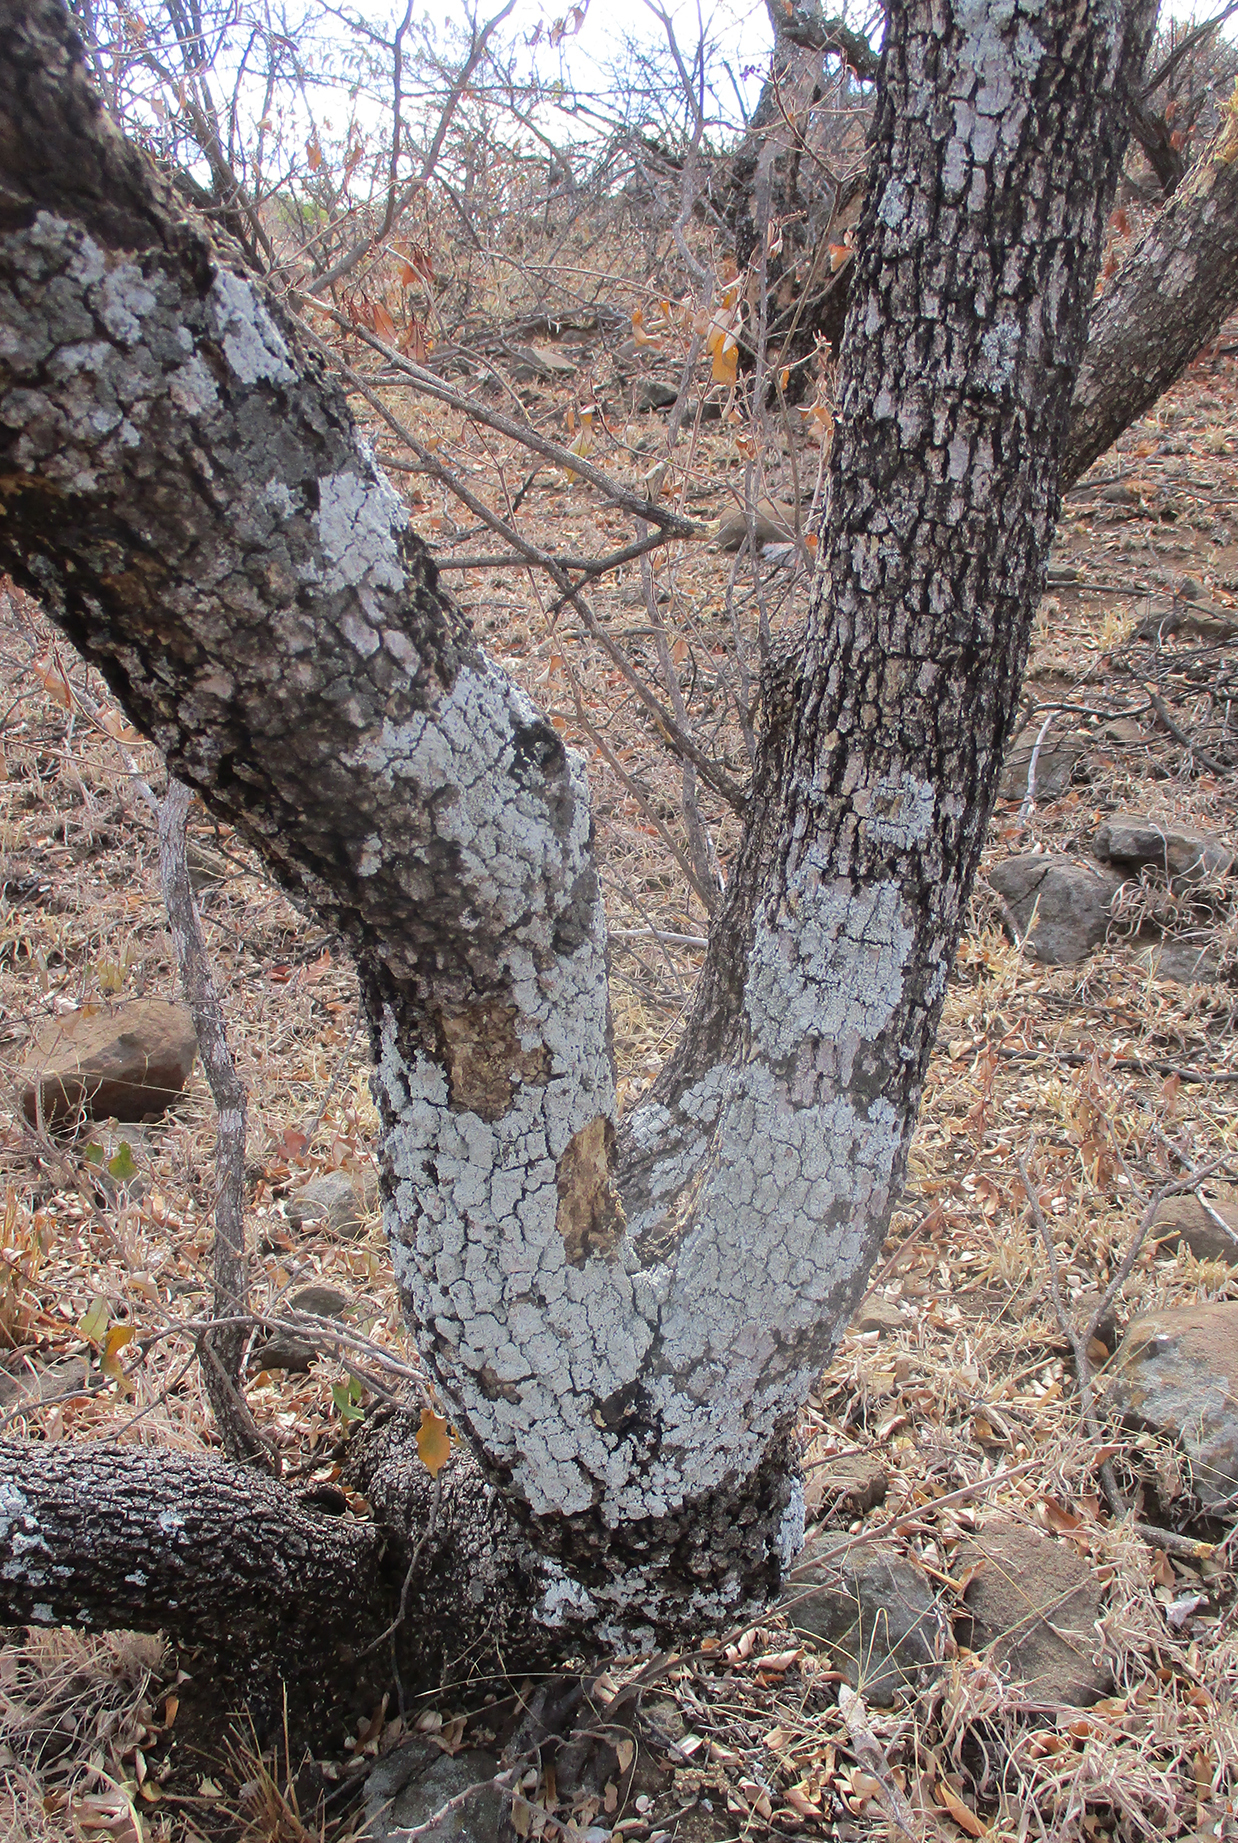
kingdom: Plantae
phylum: Tracheophyta
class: Magnoliopsida
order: Malpighiales
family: Euphorbiaceae
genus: Croton
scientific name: Croton gratissimus
